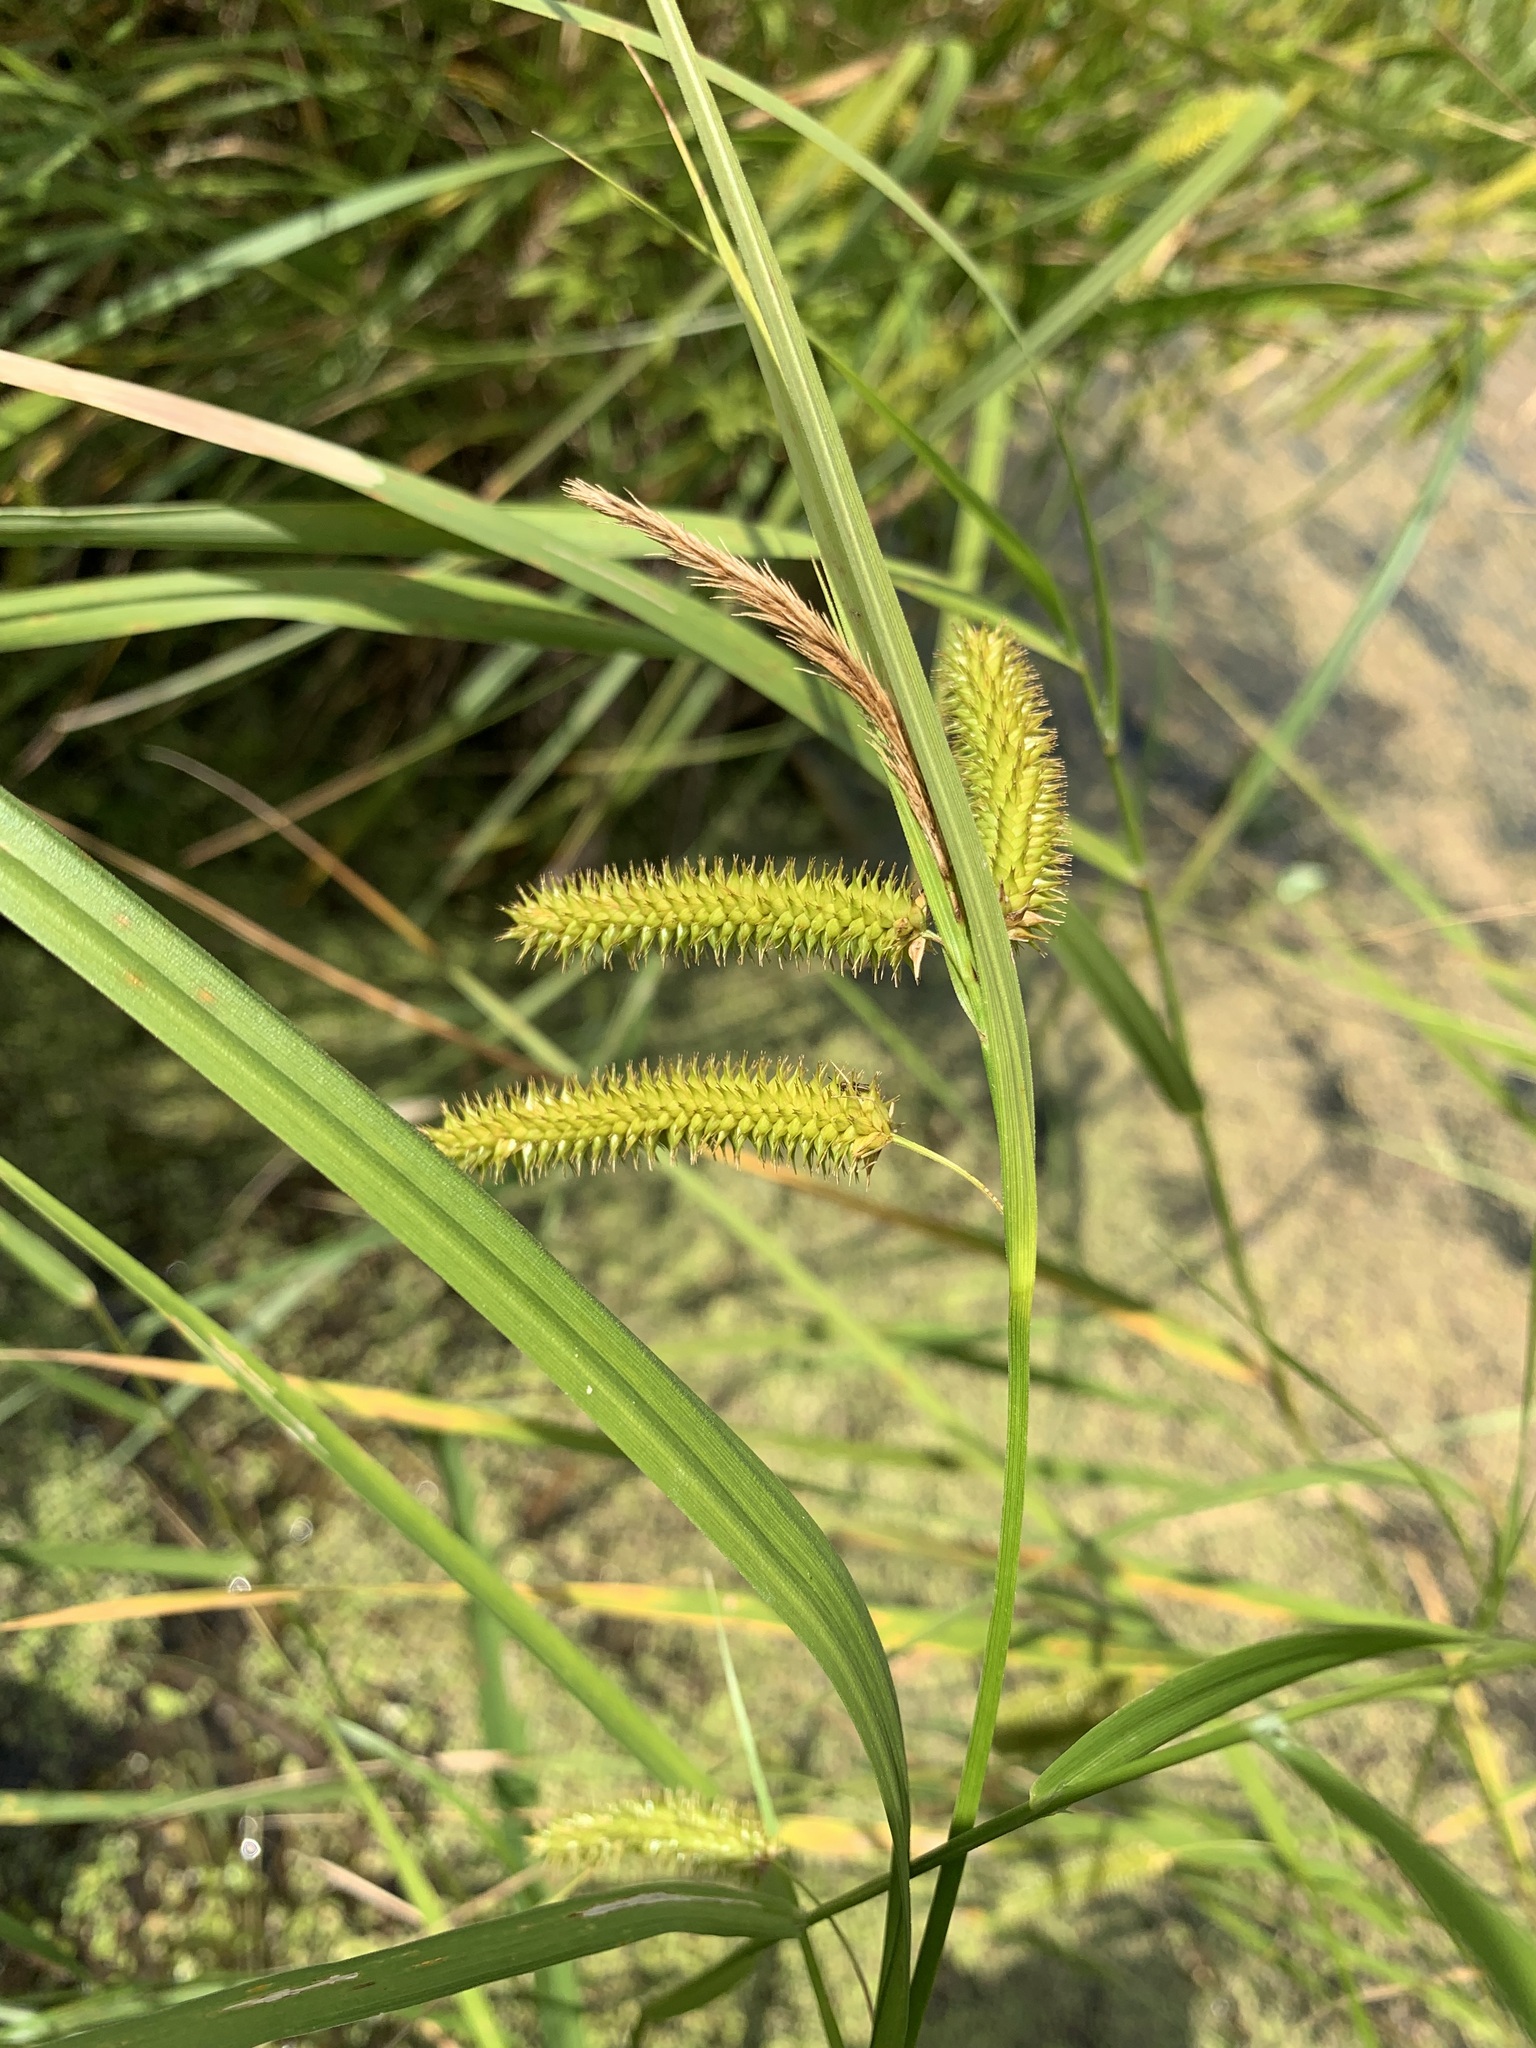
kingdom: Plantae
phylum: Tracheophyta
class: Liliopsida
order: Poales
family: Cyperaceae
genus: Carex
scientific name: Carex pseudocyperus
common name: Cyperus sedge
